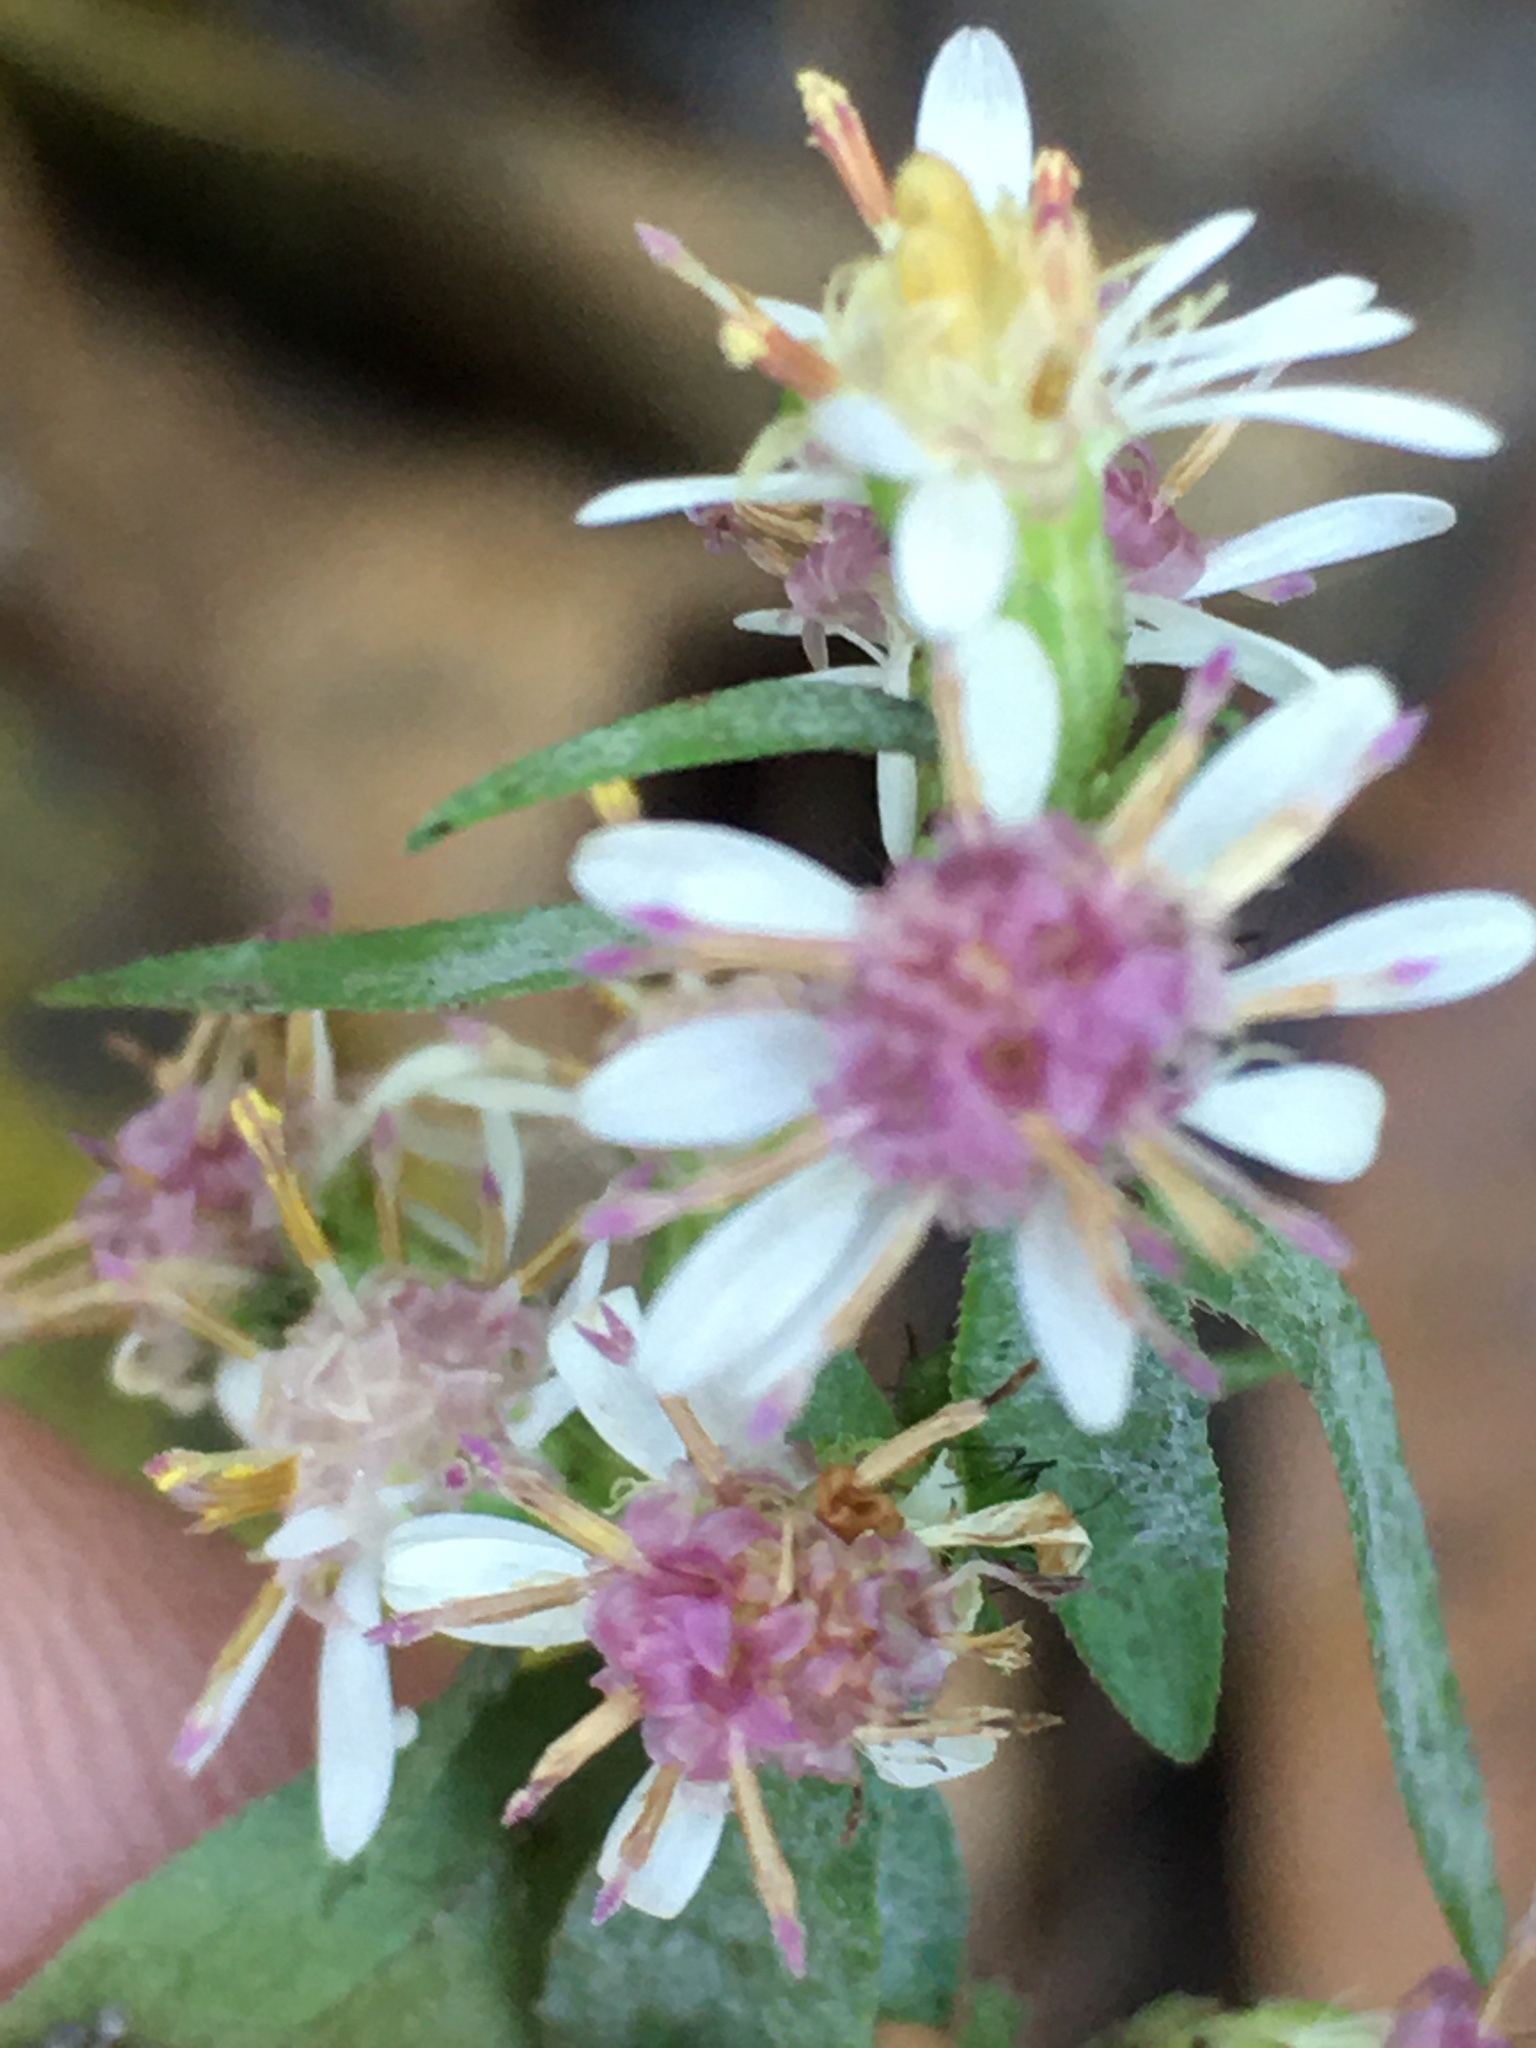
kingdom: Plantae
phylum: Tracheophyta
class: Magnoliopsida
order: Asterales
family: Asteraceae
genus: Symphyotrichum
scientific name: Symphyotrichum lateriflorum
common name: Calico aster
